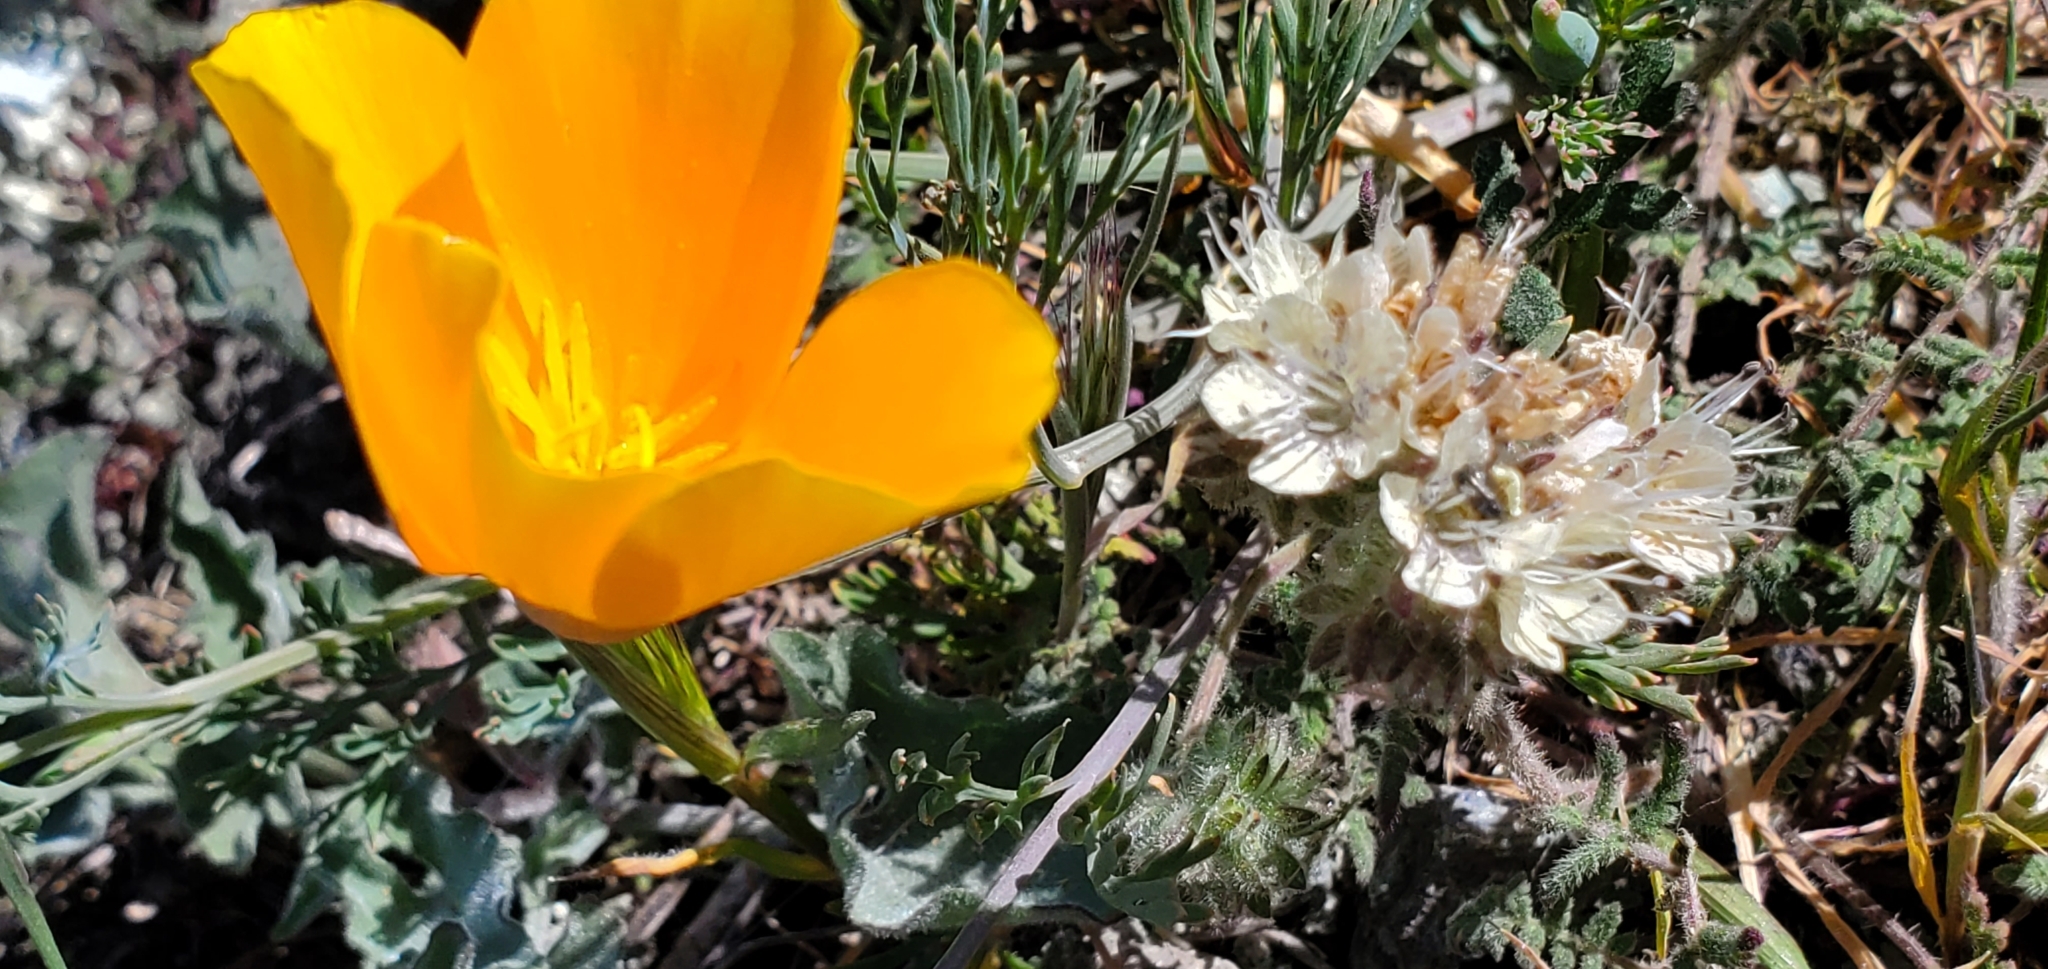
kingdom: Plantae
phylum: Tracheophyta
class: Magnoliopsida
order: Boraginales
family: Hydrophyllaceae
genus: Phacelia
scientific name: Phacelia distans
